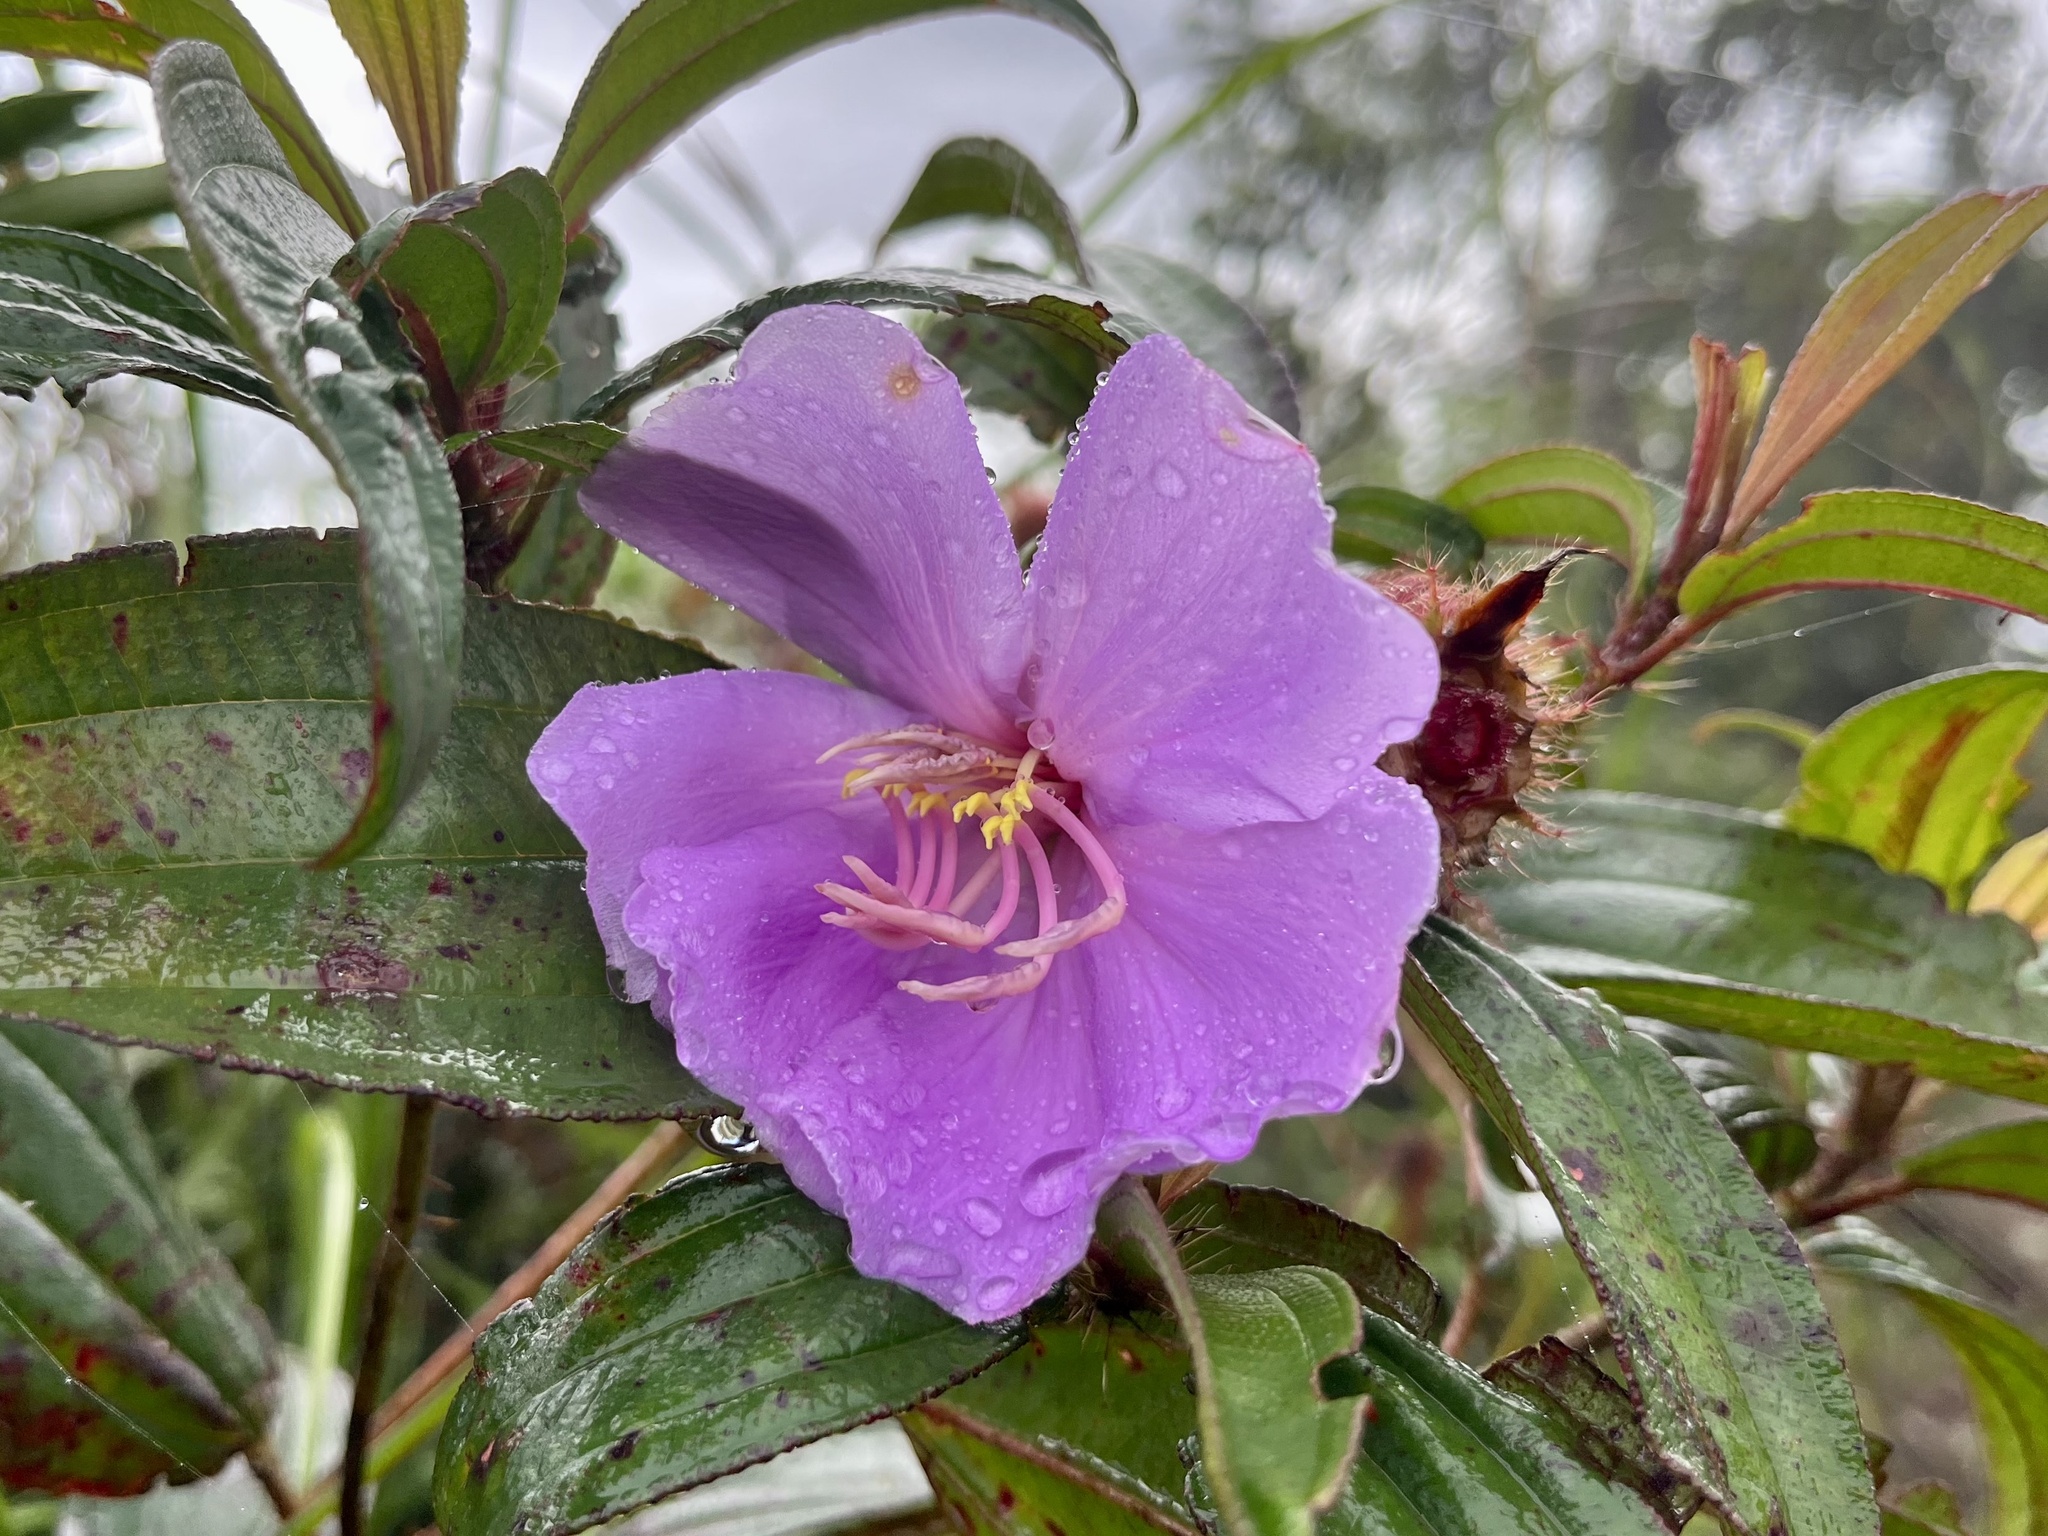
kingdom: Plantae
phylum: Tracheophyta
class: Magnoliopsida
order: Myrtales
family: Melastomataceae
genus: Melastoma
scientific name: Melastoma sanguineum
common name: Red melastome
